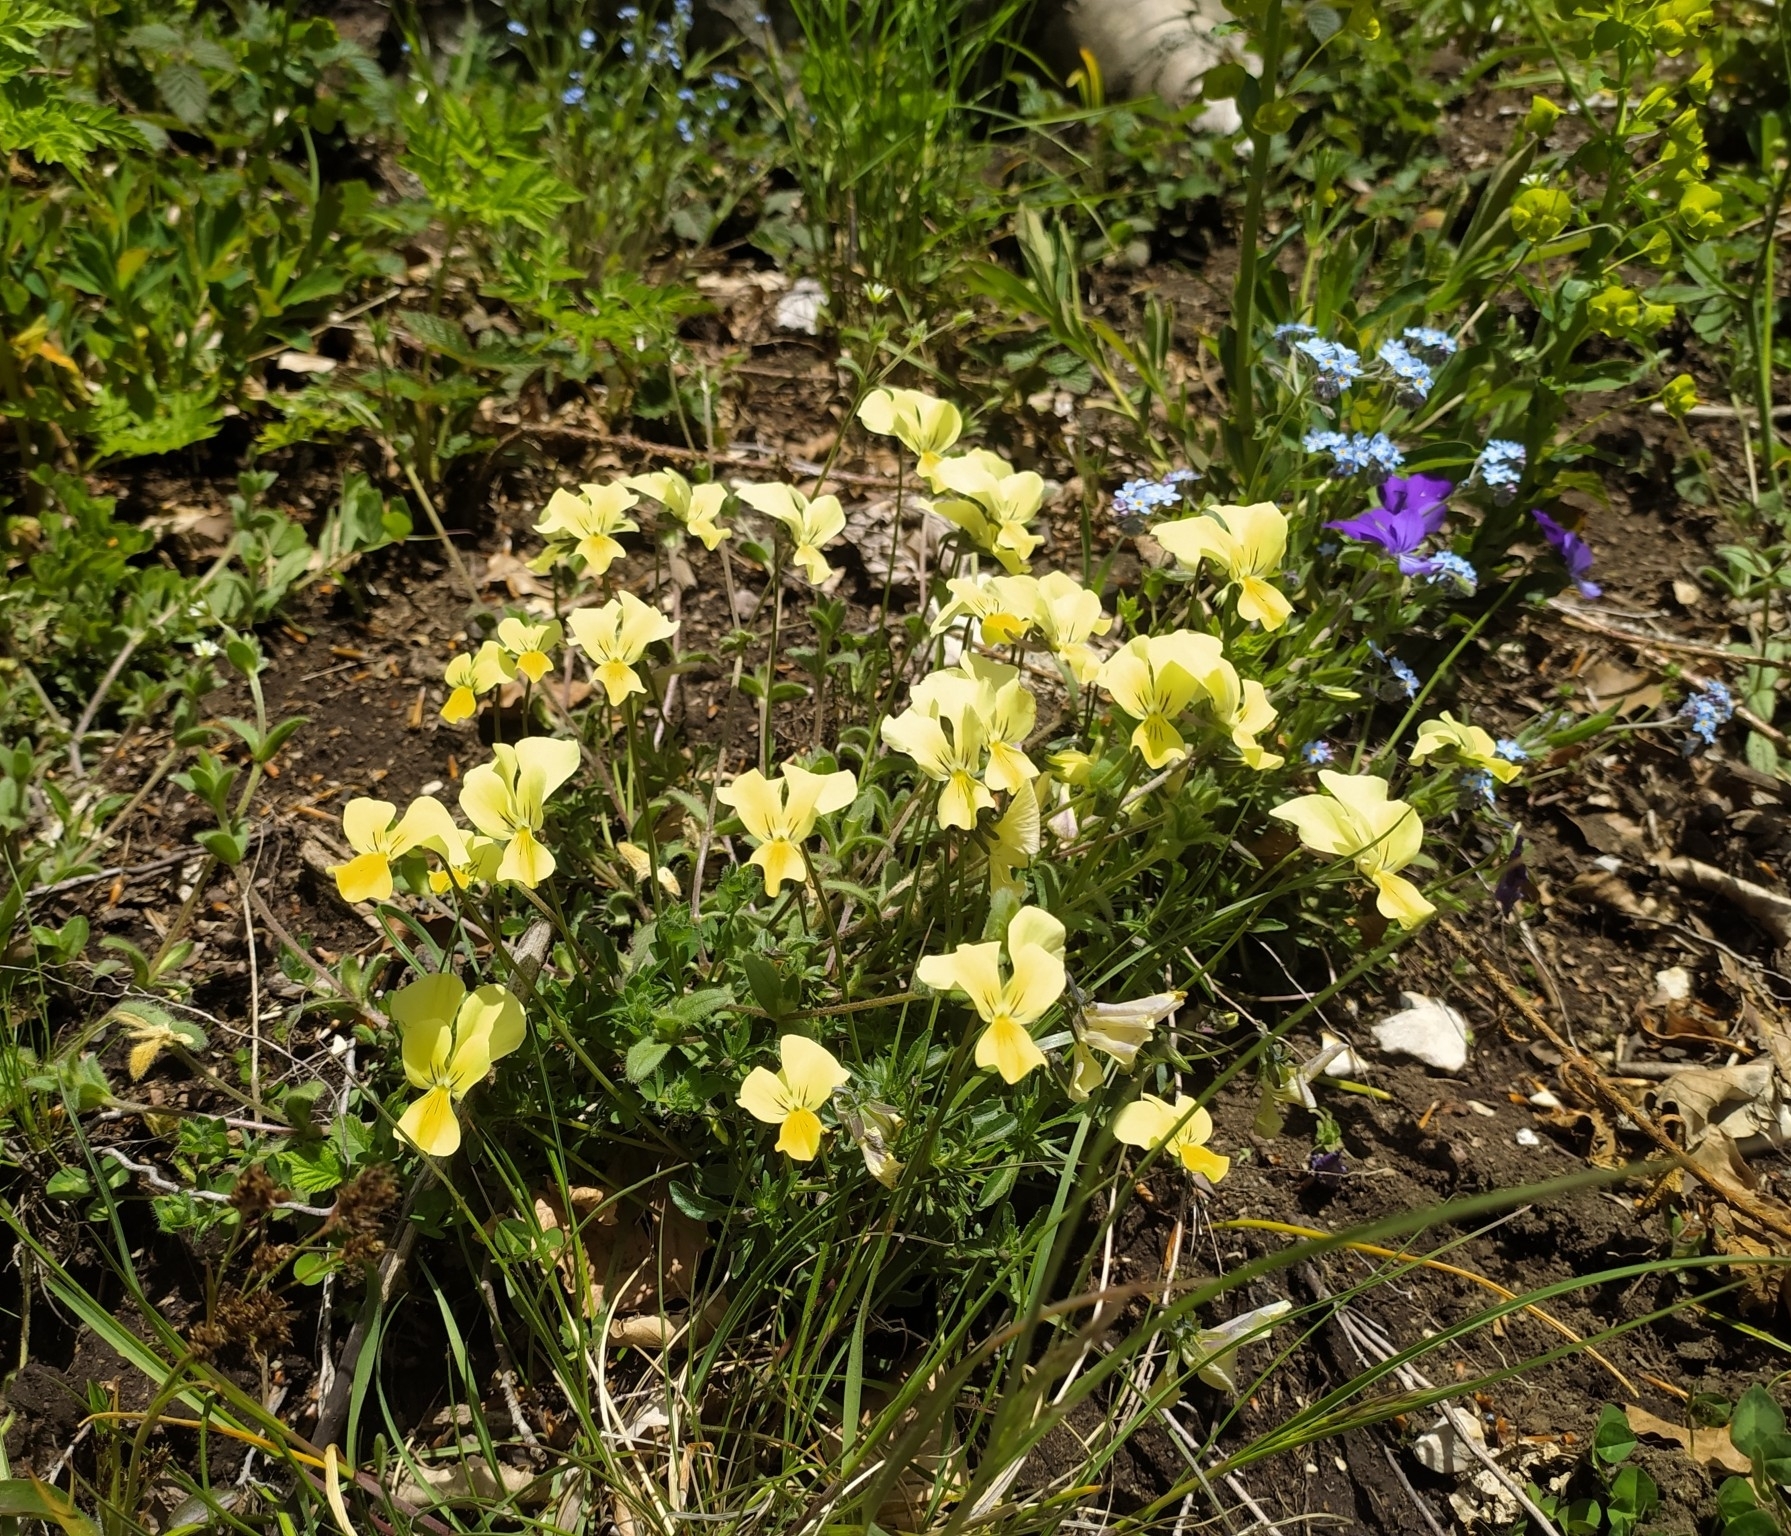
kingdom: Plantae
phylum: Tracheophyta
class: Magnoliopsida
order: Malpighiales
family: Violaceae
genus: Viola
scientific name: Viola pseudogracilis
